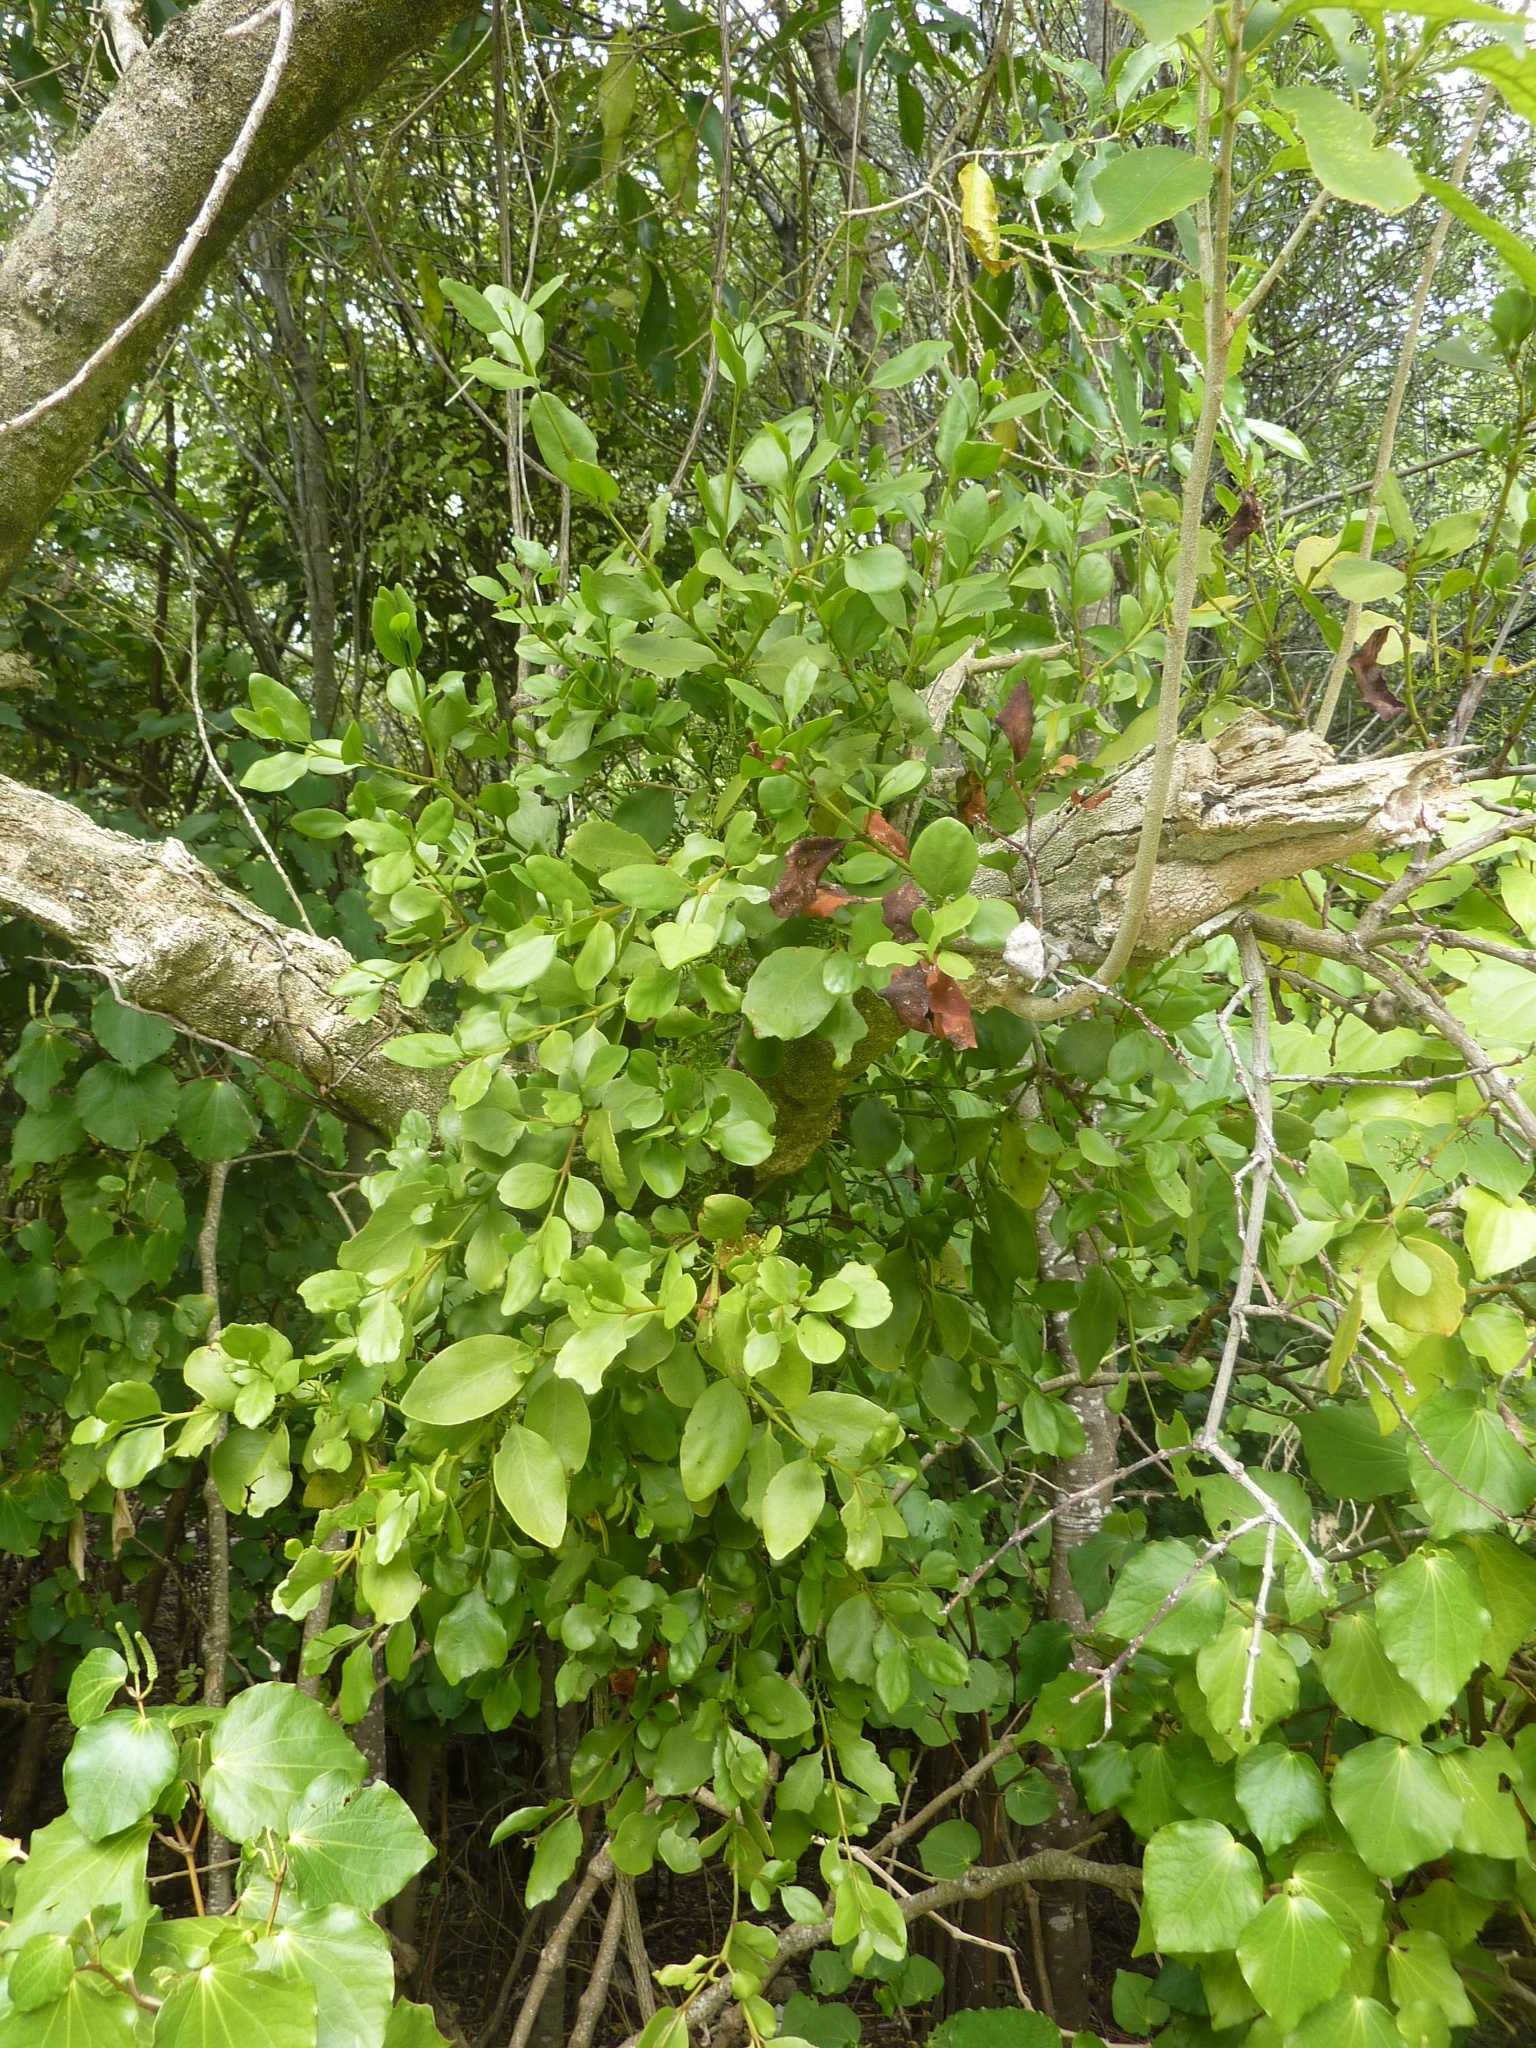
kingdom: Plantae
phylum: Tracheophyta
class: Magnoliopsida
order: Santalales
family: Loranthaceae
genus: Ileostylus
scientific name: Ileostylus micranthus
